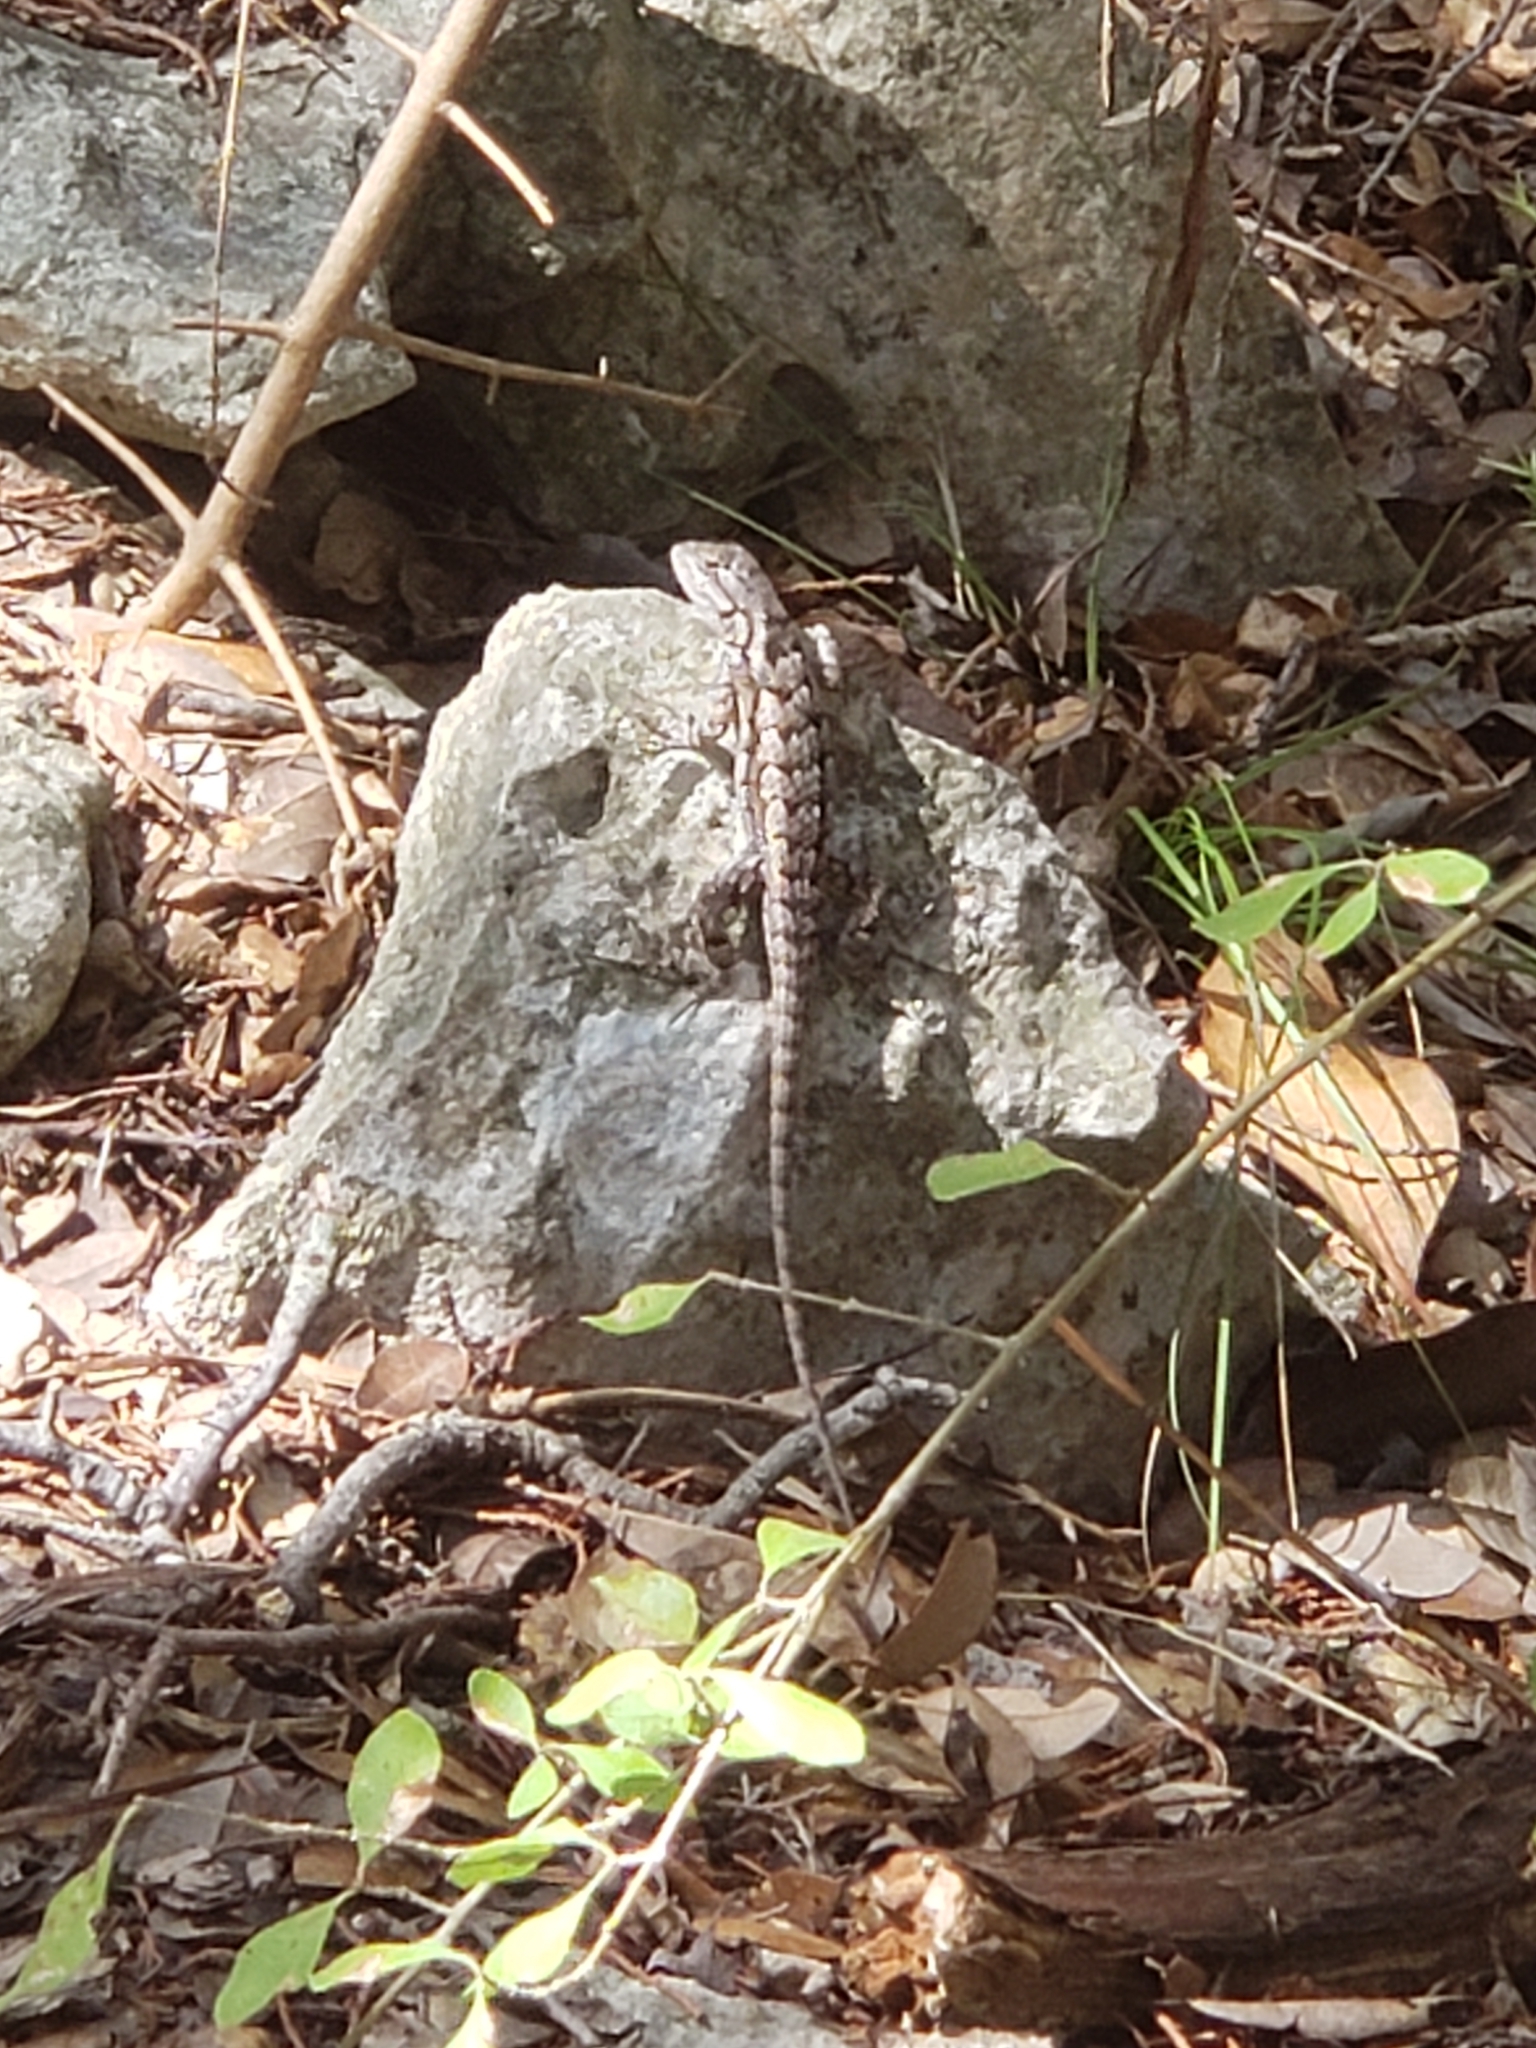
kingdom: Animalia
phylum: Chordata
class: Squamata
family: Phrynosomatidae
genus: Sceloporus
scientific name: Sceloporus olivaceus
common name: Texas spiny lizard
